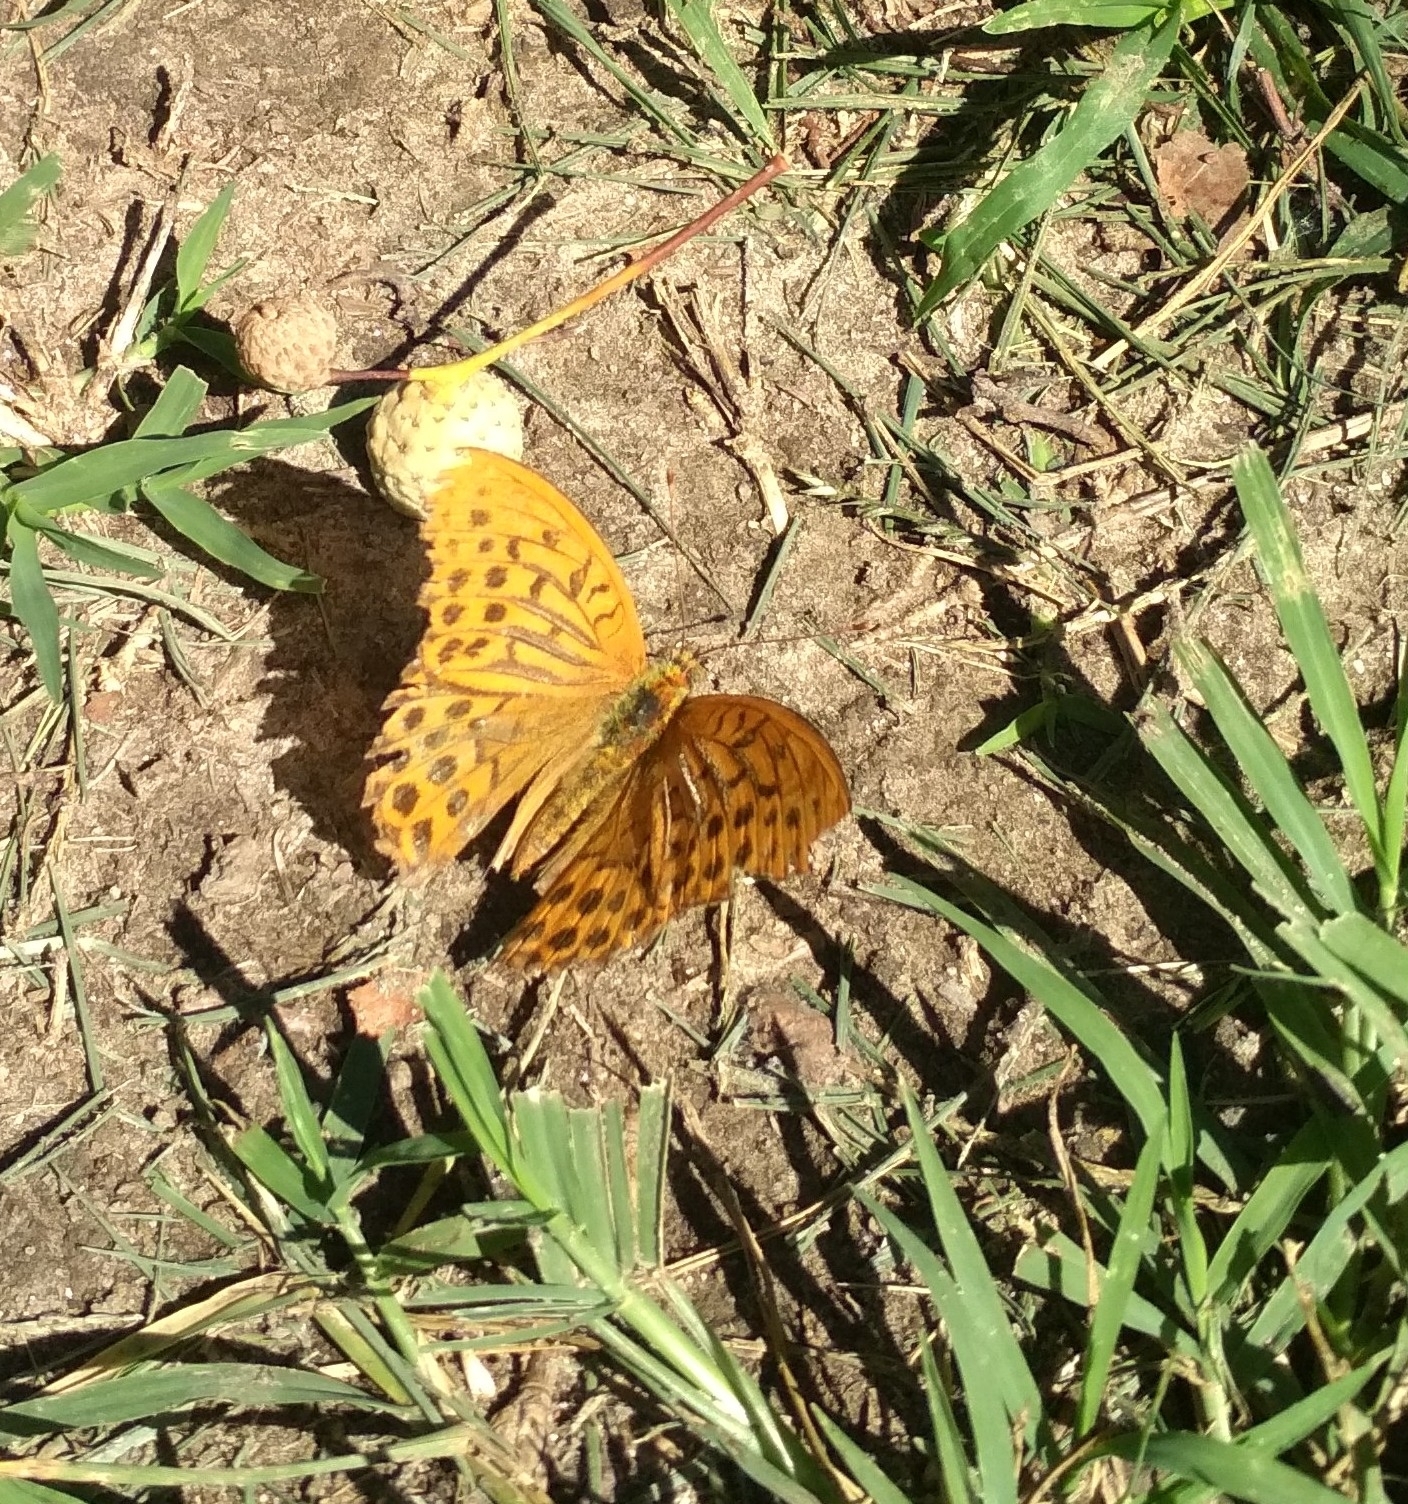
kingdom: Animalia
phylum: Arthropoda
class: Insecta
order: Lepidoptera
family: Nymphalidae
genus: Argynnis
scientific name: Argynnis paphia
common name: Silver-washed fritillary
